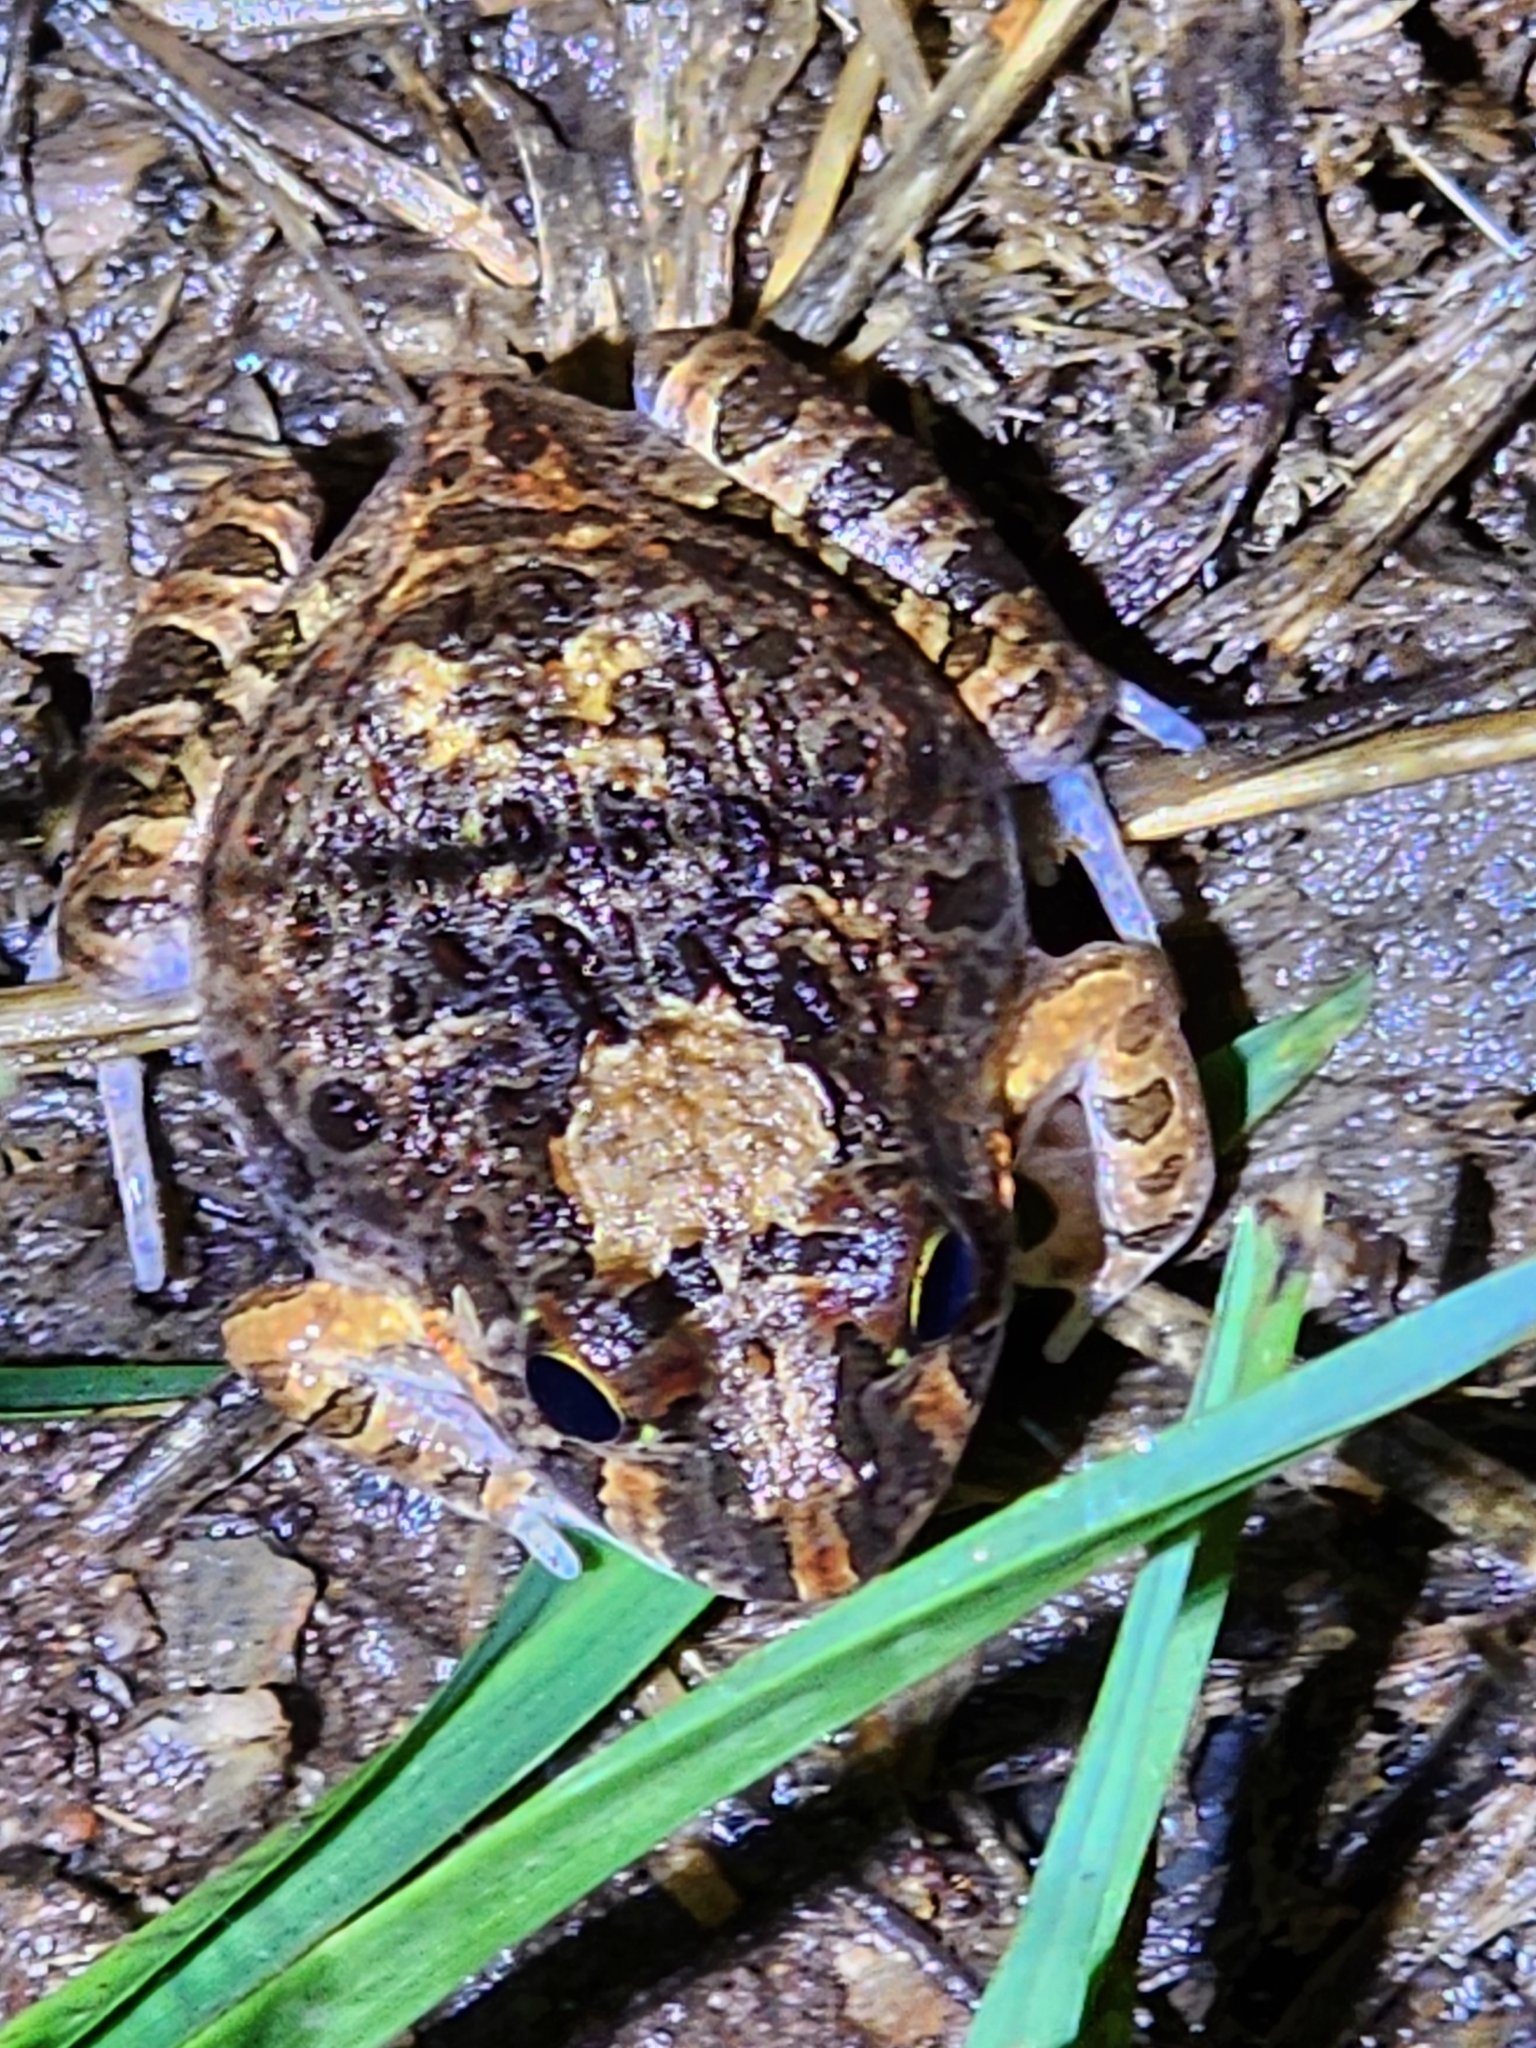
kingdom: Animalia
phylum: Chordata
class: Amphibia
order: Anura
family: Limnodynastidae
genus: Platyplectrum
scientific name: Platyplectrum ornatum
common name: Ornate burrowing frog
